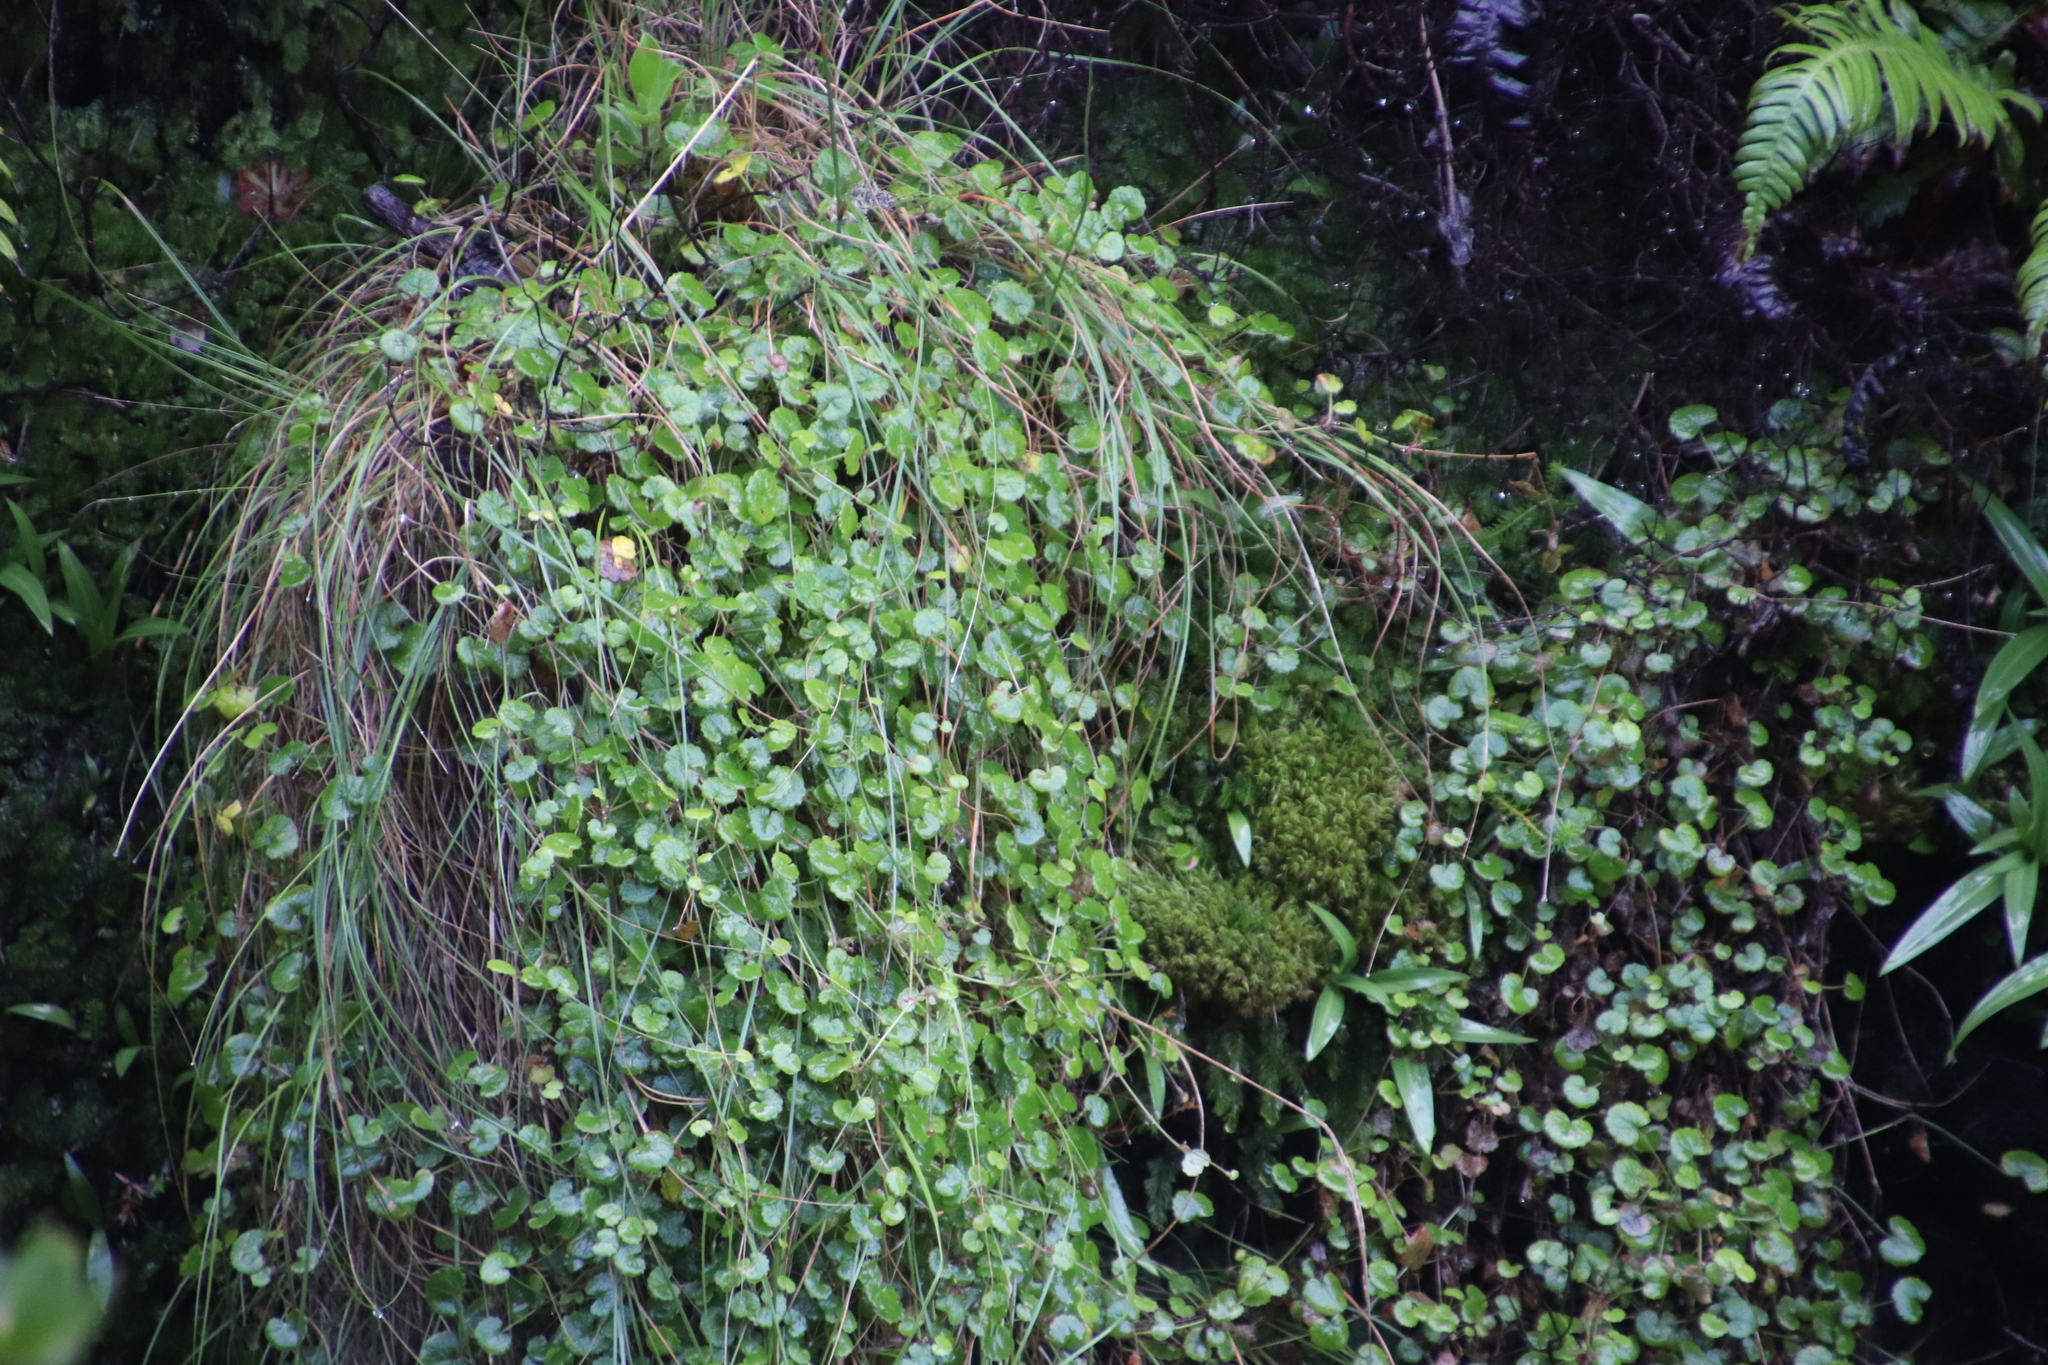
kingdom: Plantae
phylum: Tracheophyta
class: Magnoliopsida
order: Apiales
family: Apiaceae
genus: Centella
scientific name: Centella eriantha
